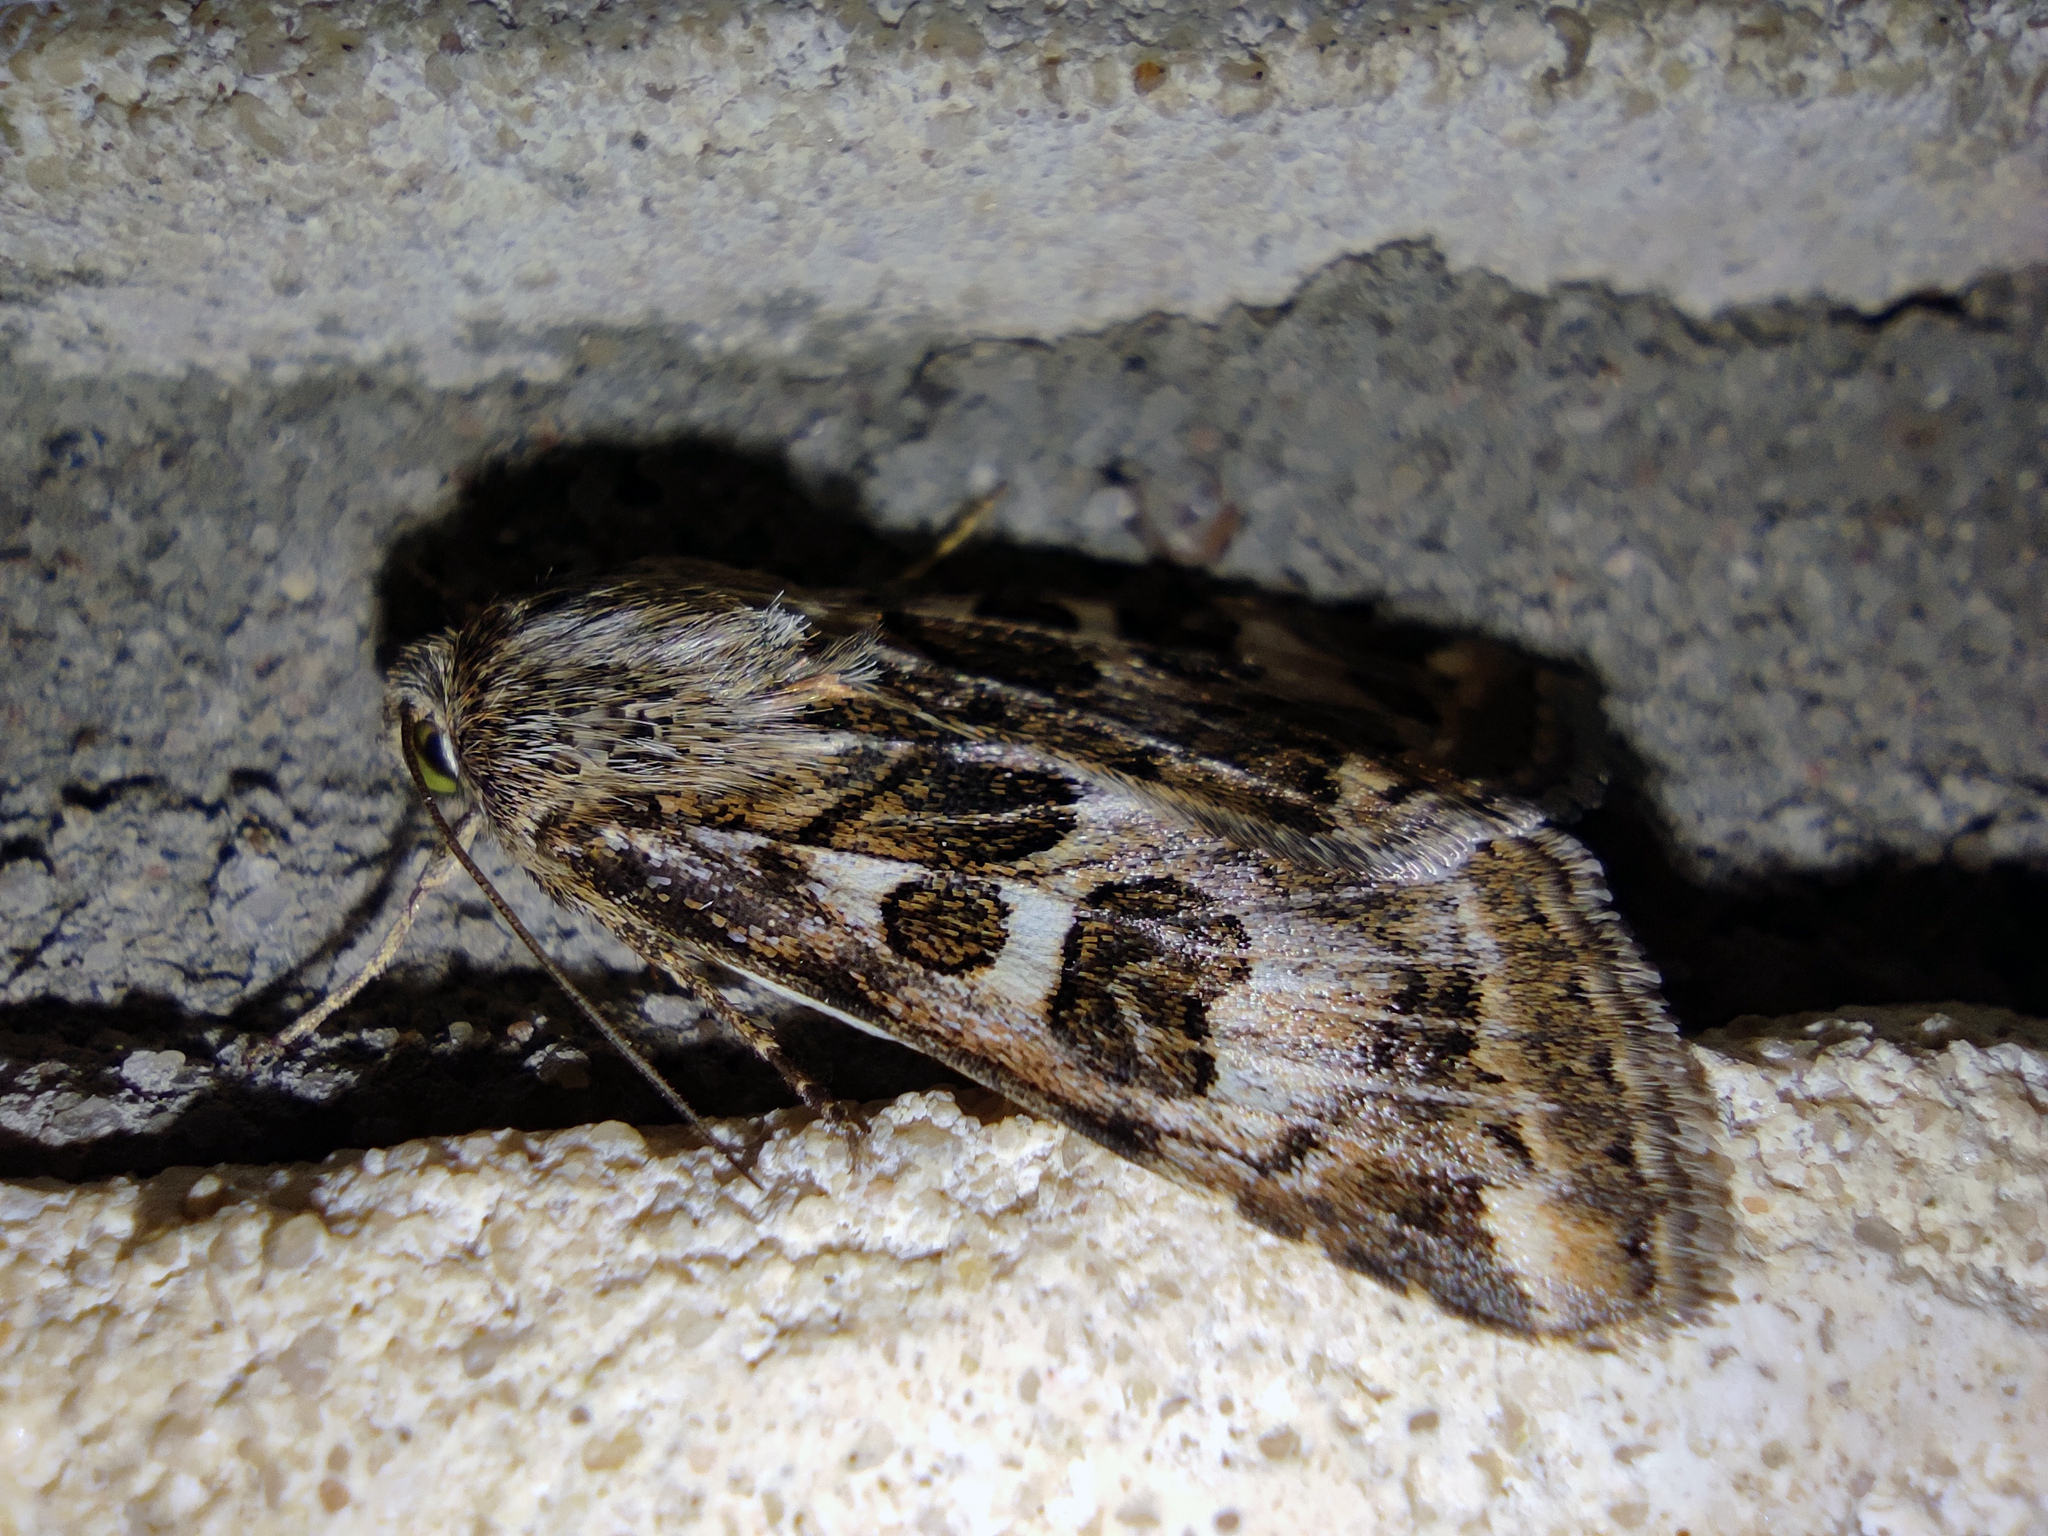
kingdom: Animalia
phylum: Arthropoda
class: Insecta
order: Lepidoptera
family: Noctuidae
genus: Protoschinia
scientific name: Protoschinia scutosa
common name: Spotted clover
